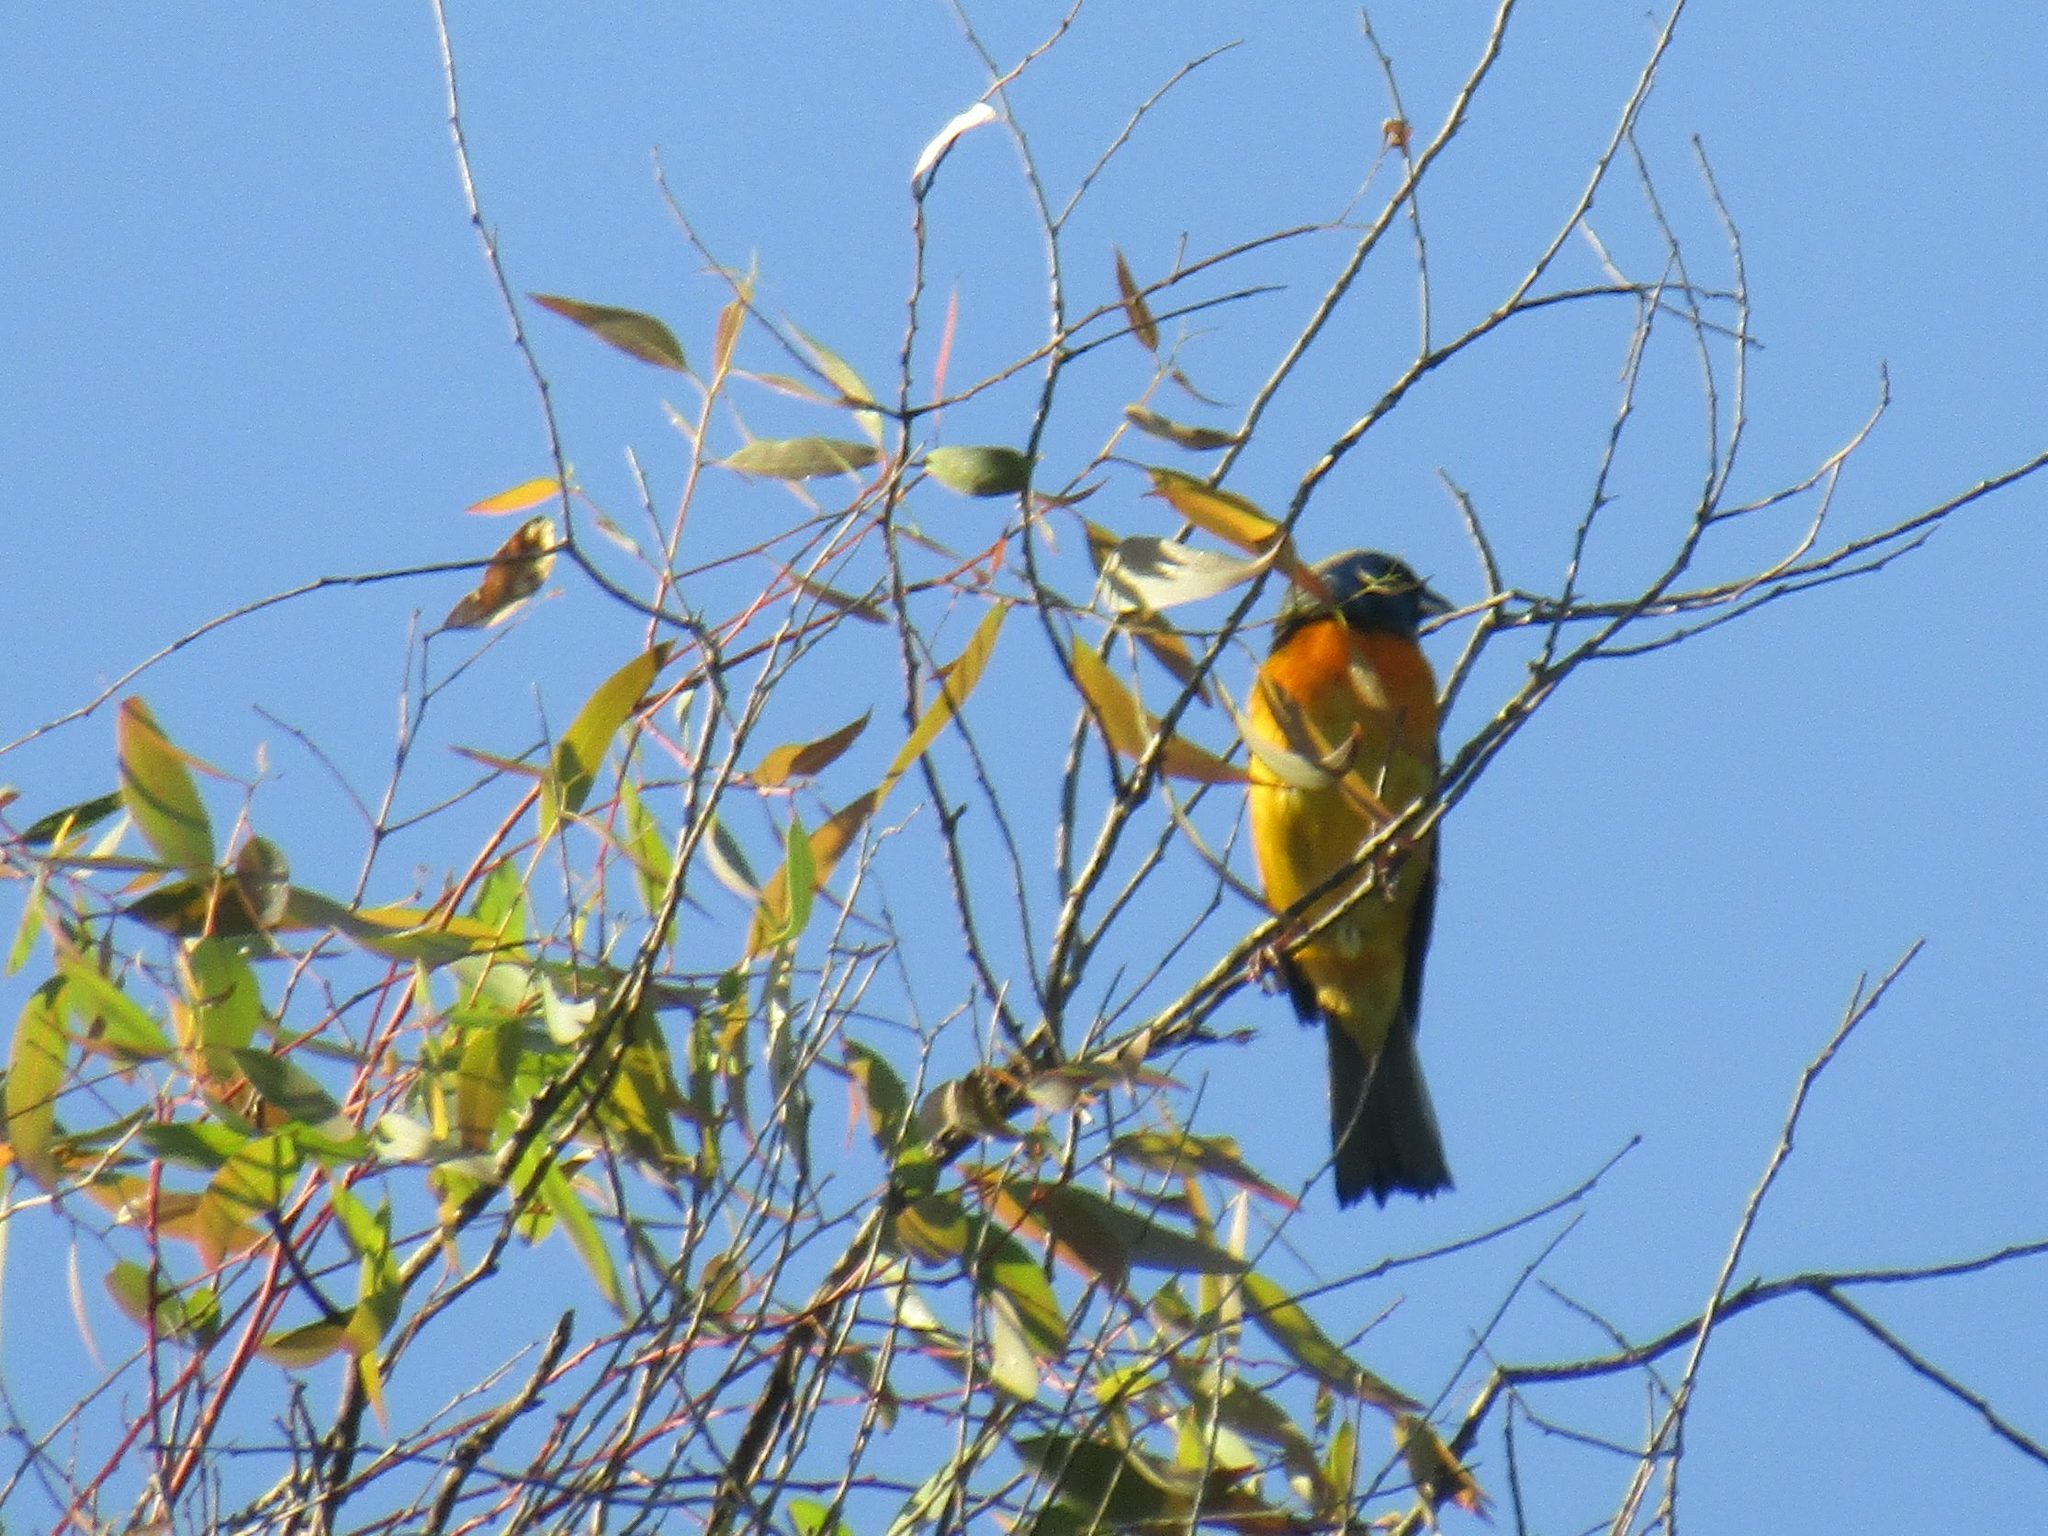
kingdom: Animalia
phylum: Chordata
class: Aves
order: Passeriformes
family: Thraupidae
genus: Rauenia
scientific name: Rauenia bonariensis
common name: Blue-and-yellow tanager
